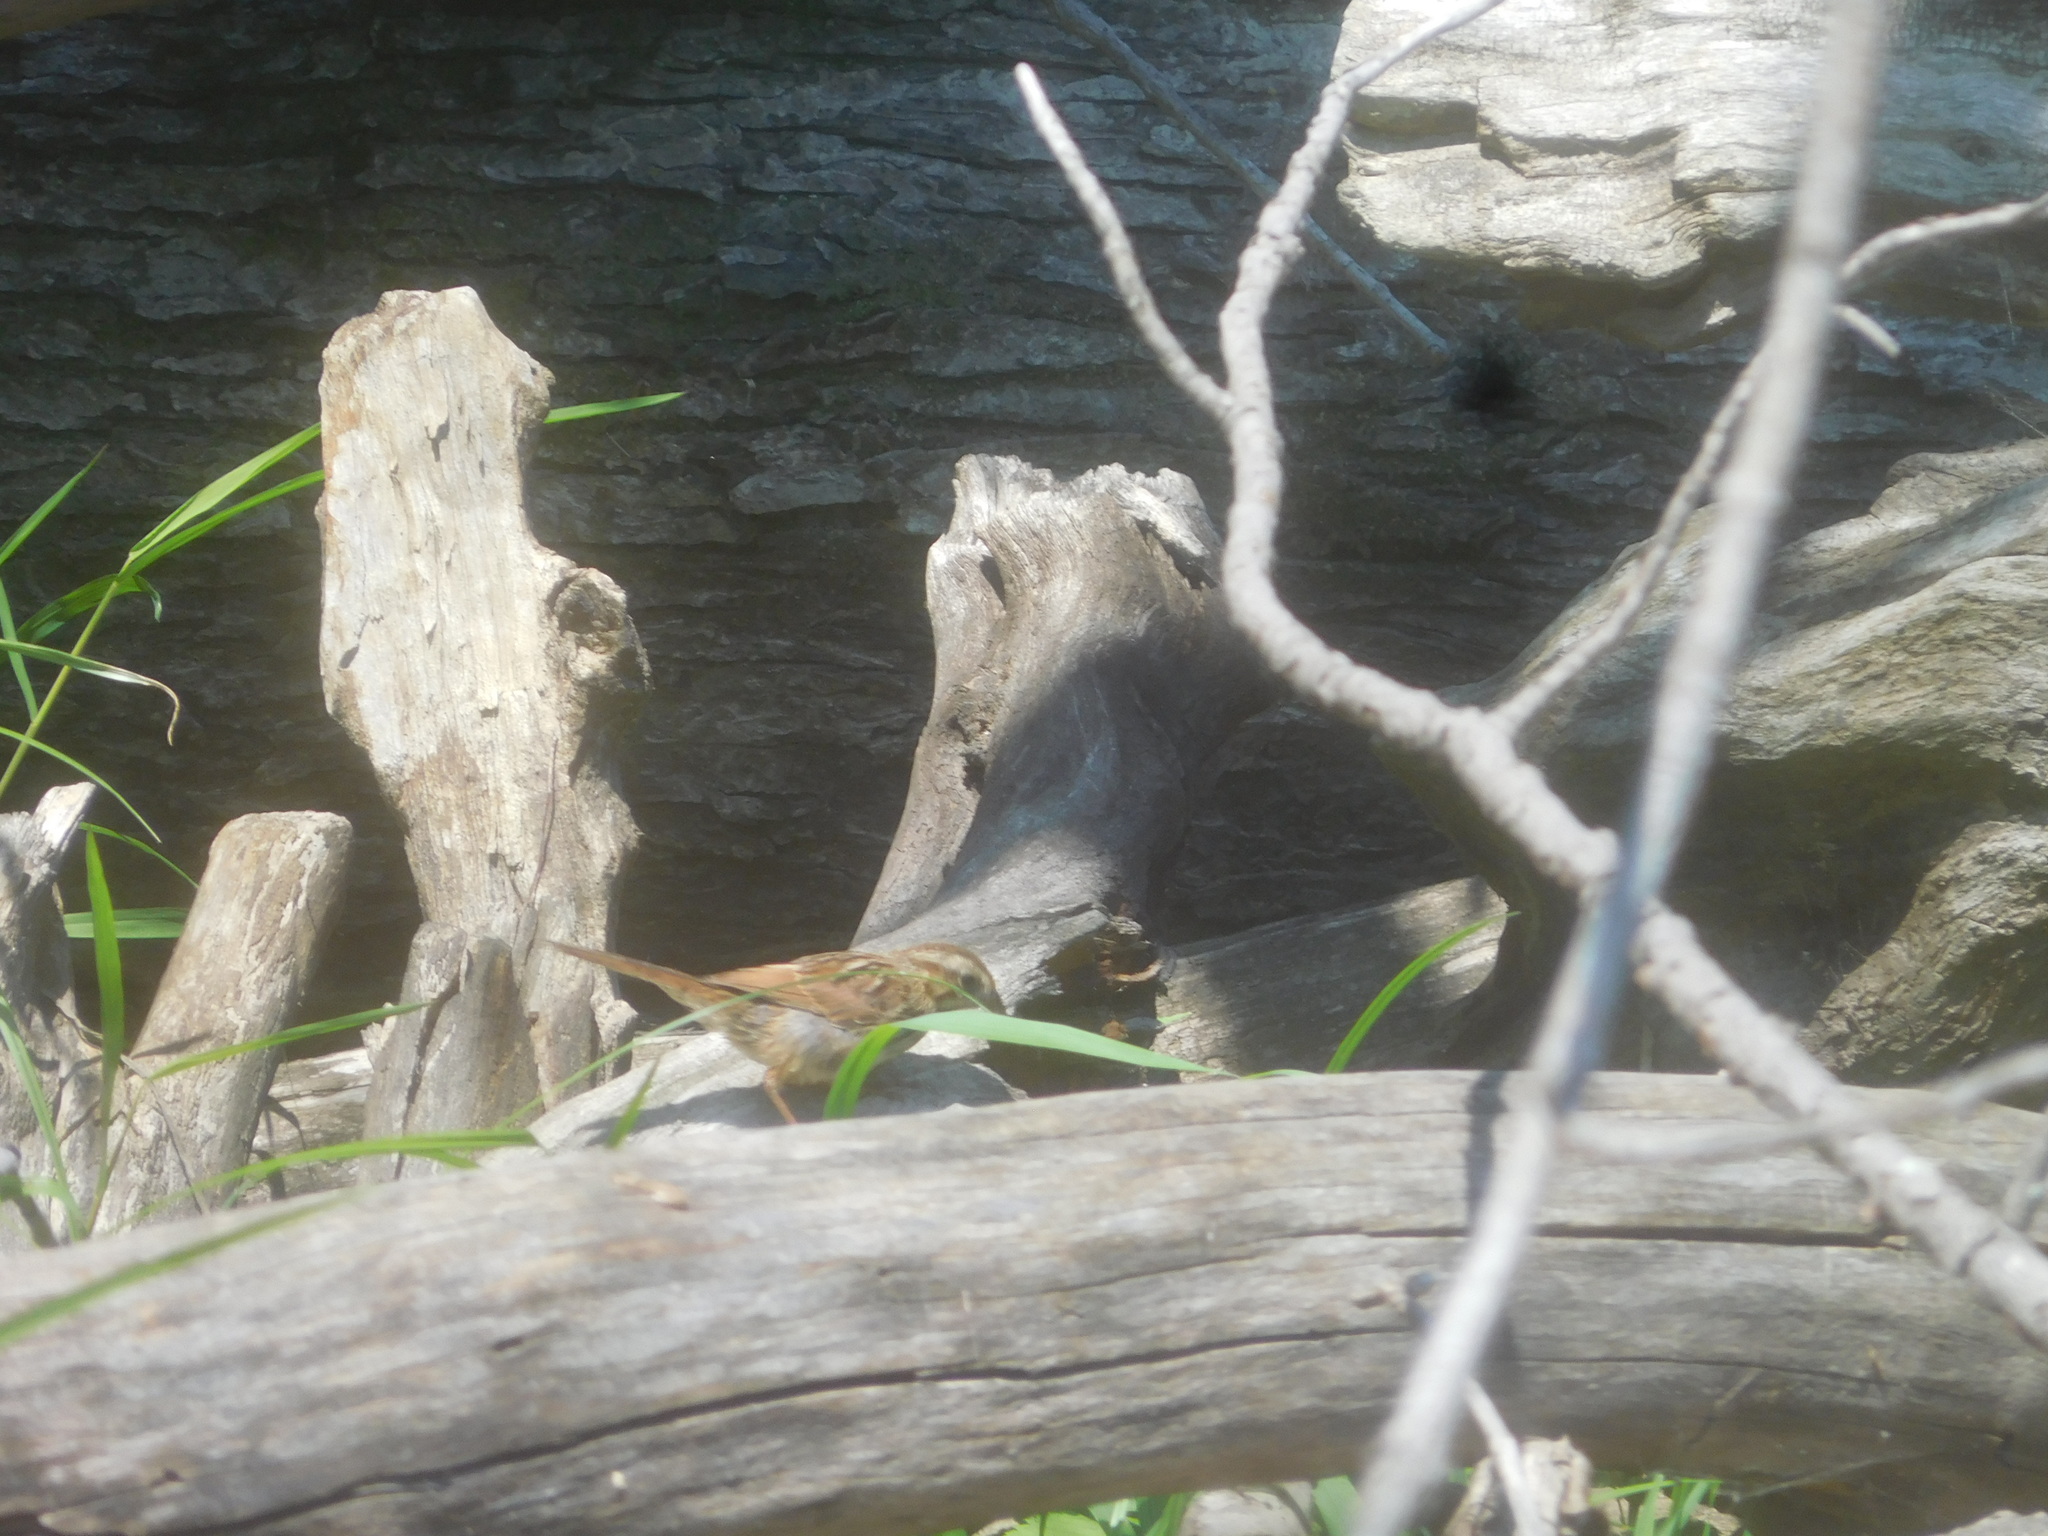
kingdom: Animalia
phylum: Chordata
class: Aves
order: Passeriformes
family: Passerellidae
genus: Melospiza
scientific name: Melospiza melodia
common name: Song sparrow
